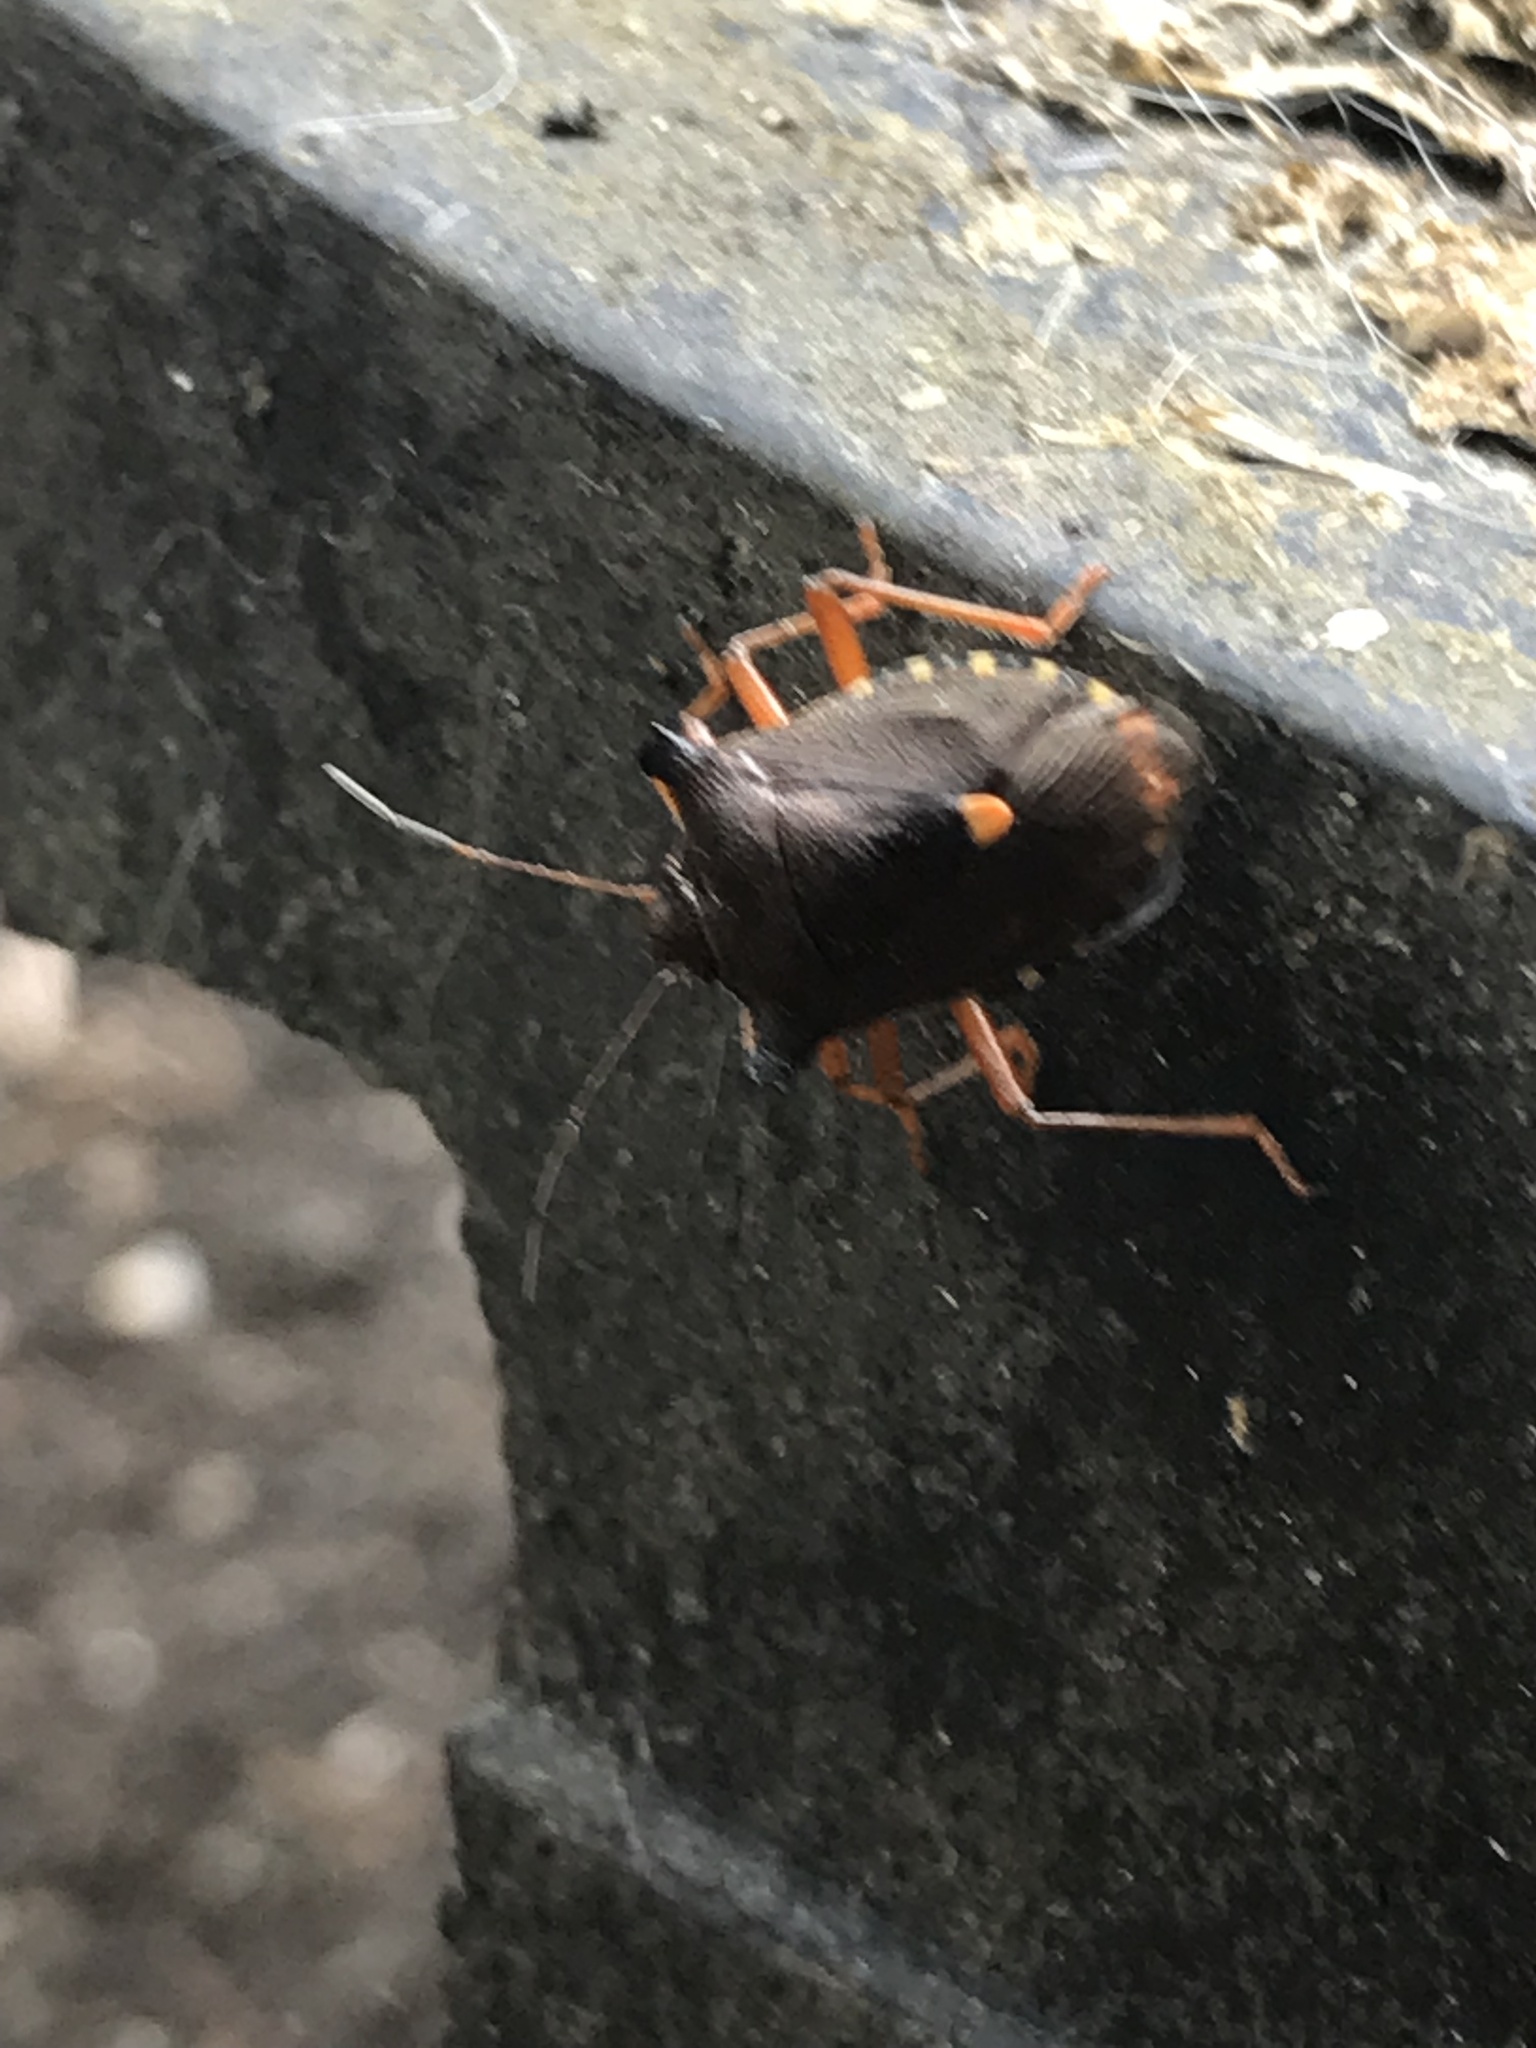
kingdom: Animalia
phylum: Arthropoda
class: Insecta
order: Hemiptera
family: Pentatomidae
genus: Pentatoma
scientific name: Pentatoma rufipes
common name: Forest bug
